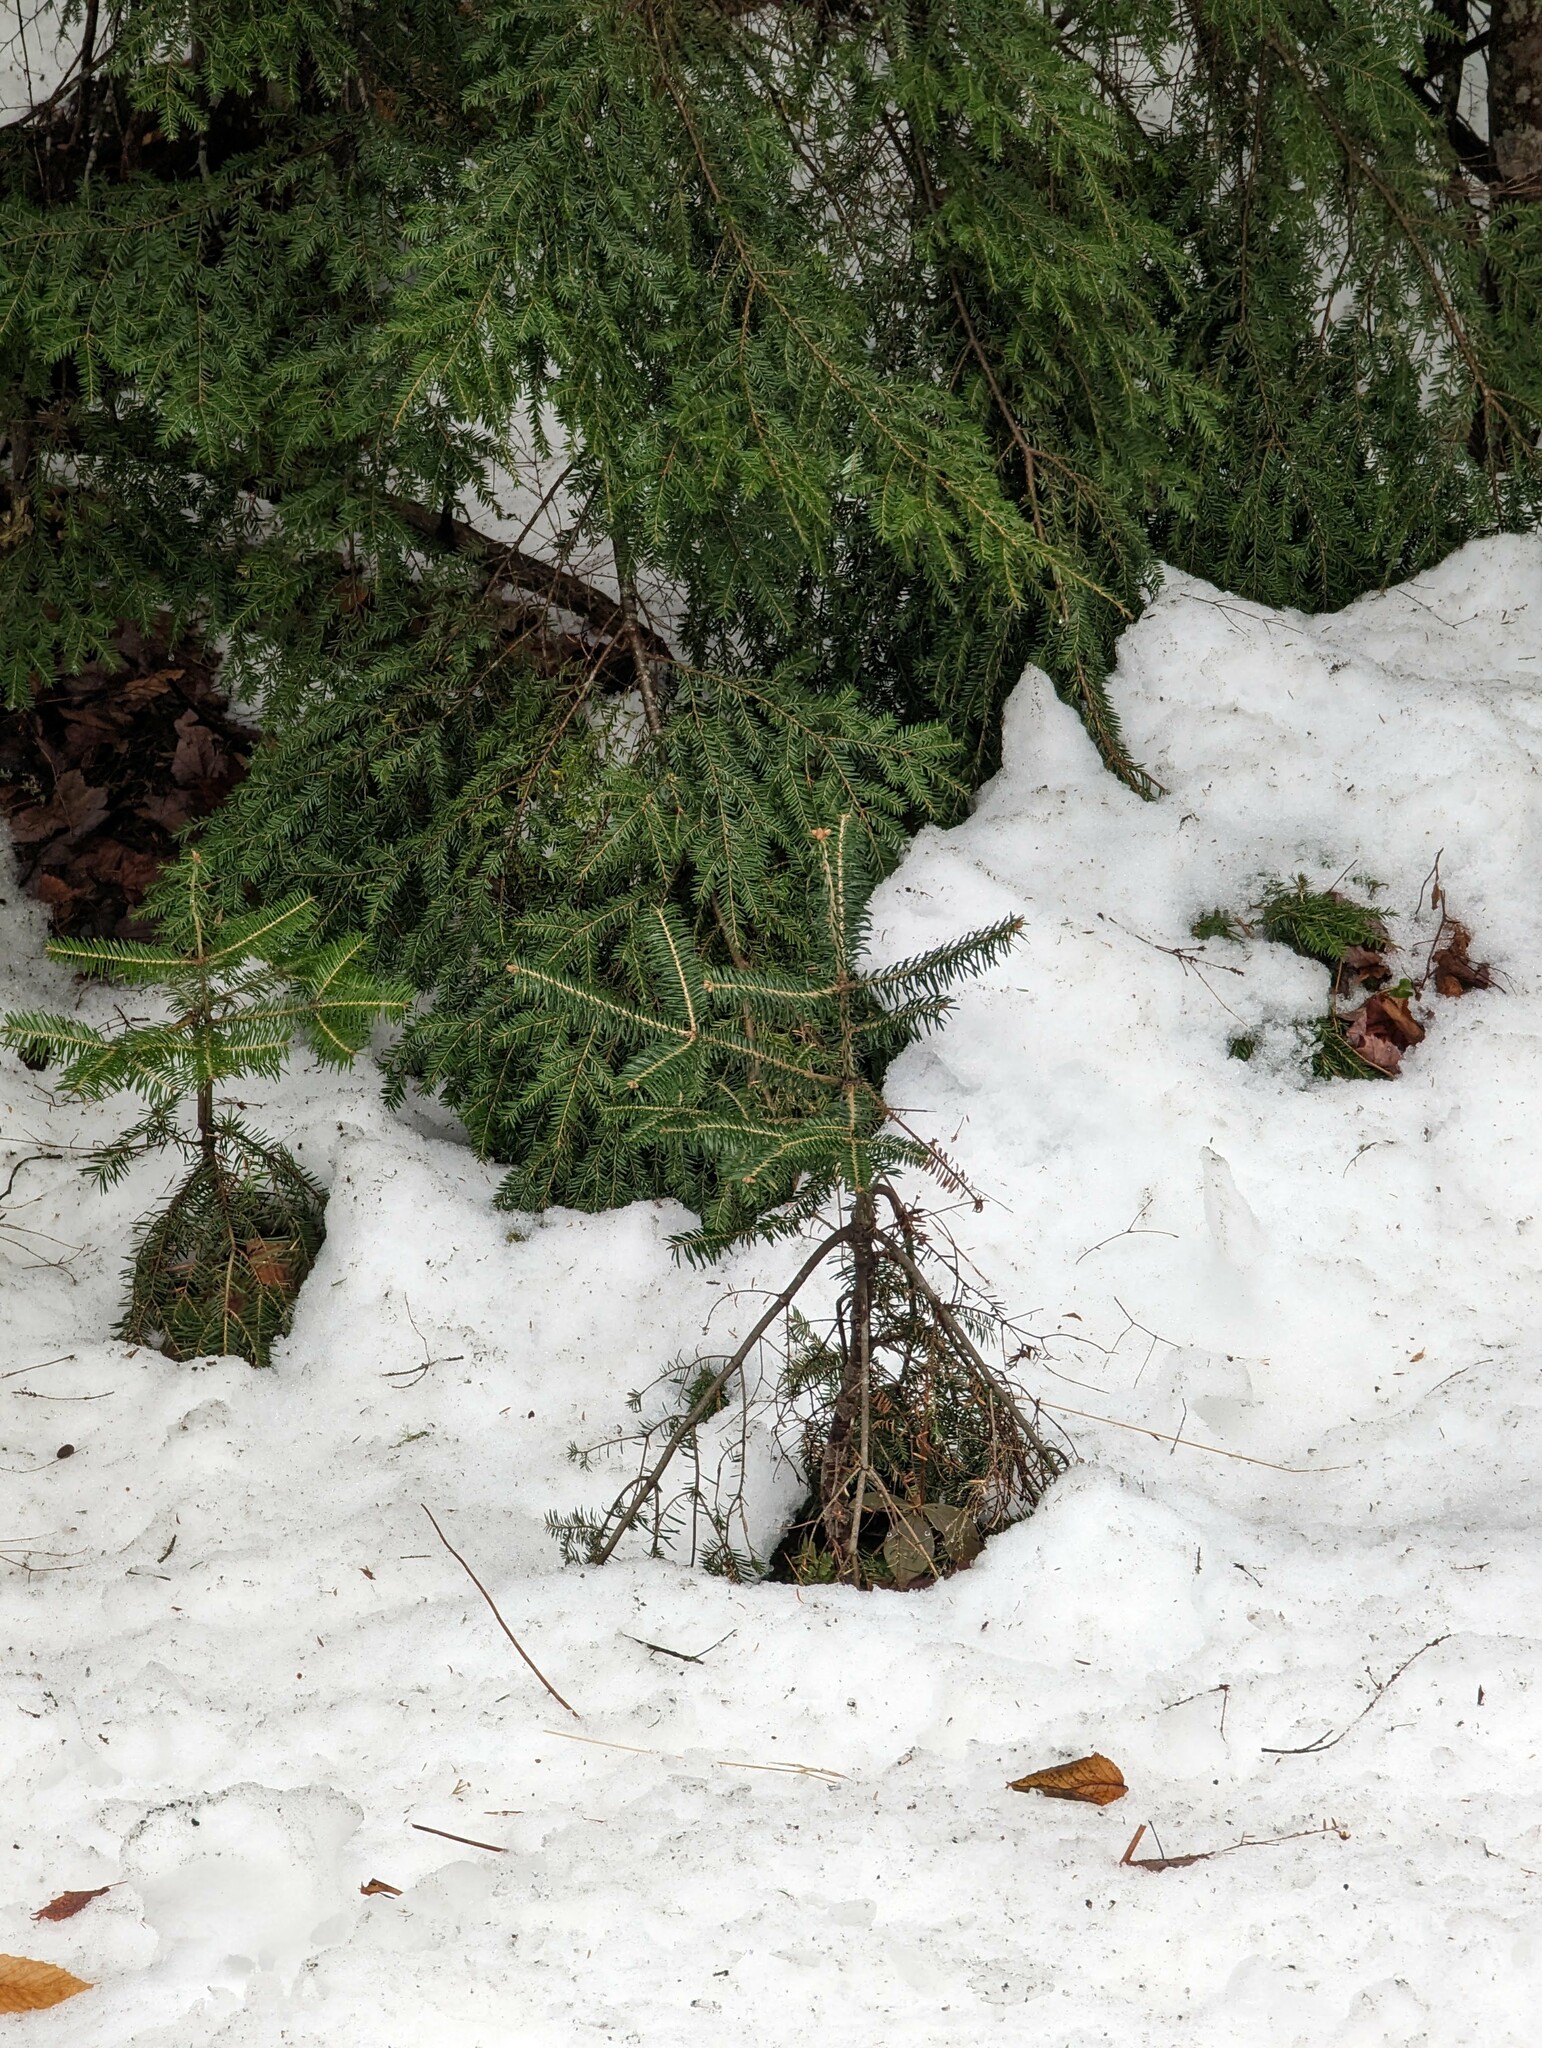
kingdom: Plantae
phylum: Tracheophyta
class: Pinopsida
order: Pinales
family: Pinaceae
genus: Abies
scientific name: Abies balsamea
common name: Balsam fir
